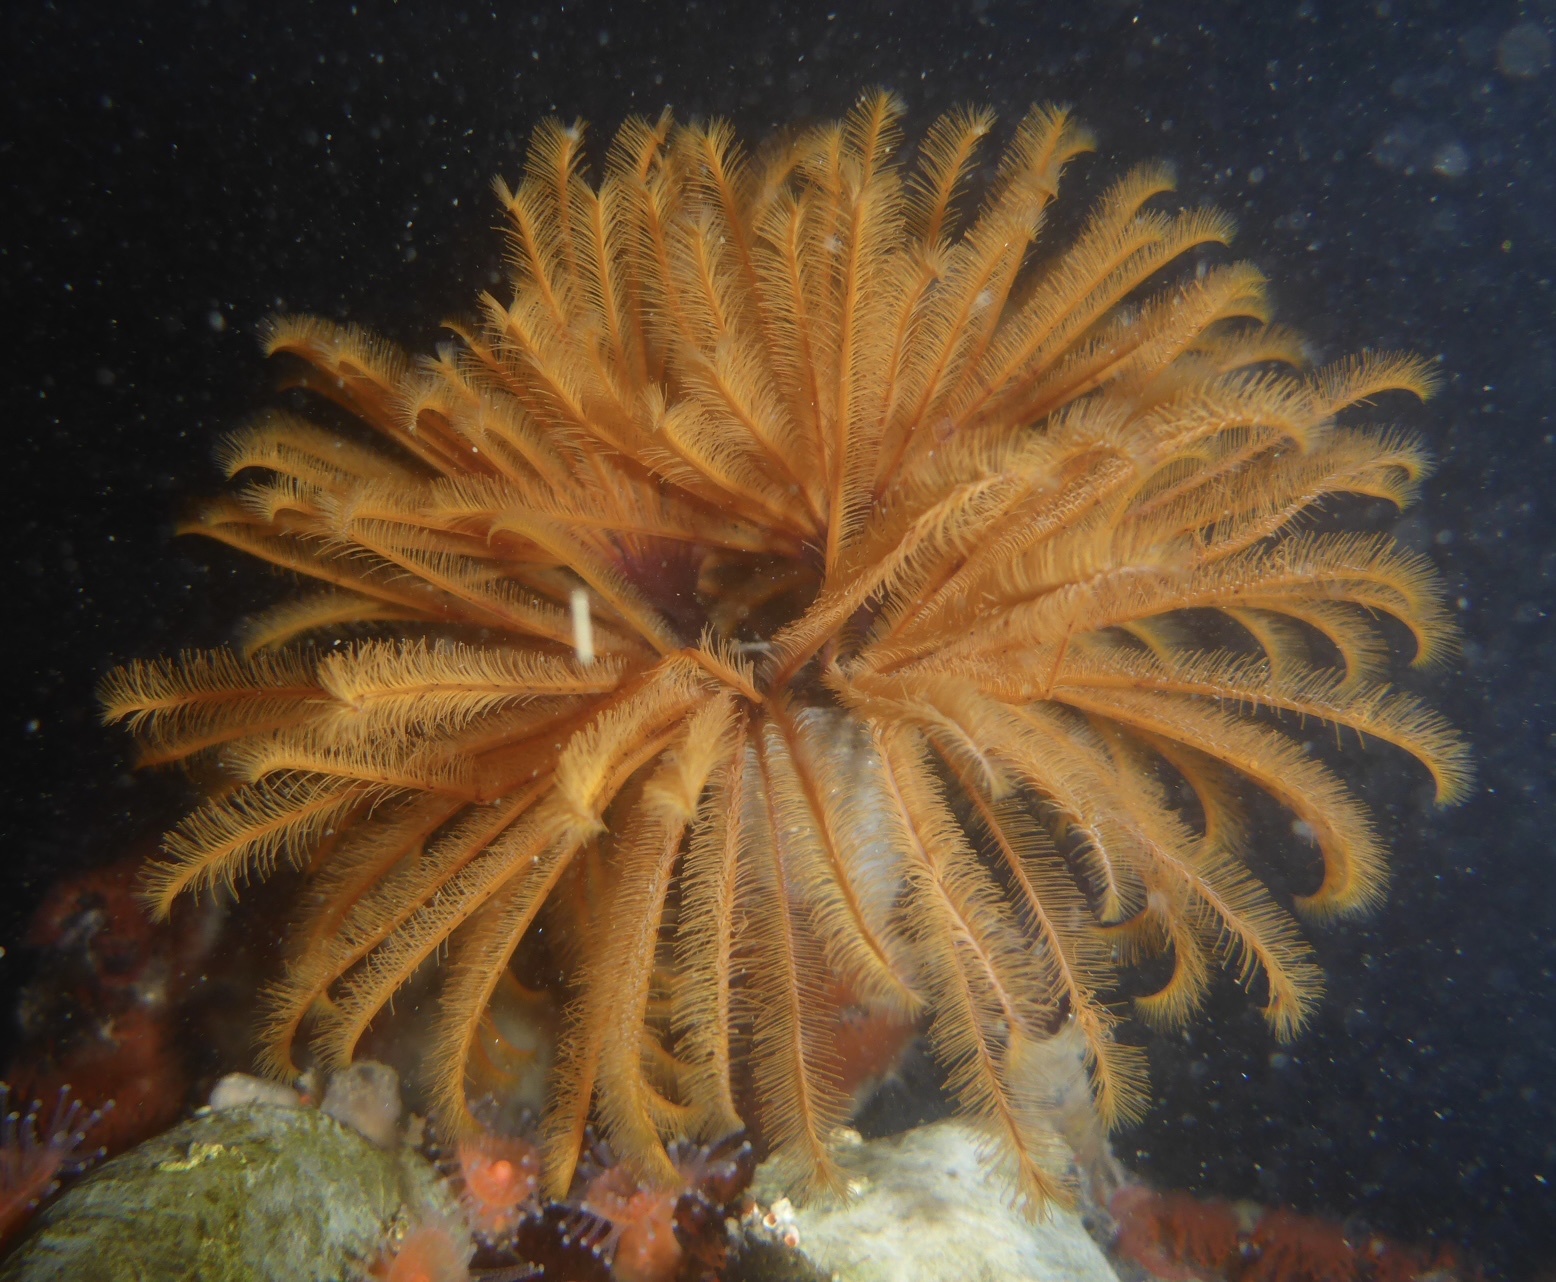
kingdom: Animalia
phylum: Annelida
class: Polychaeta
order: Sabellida
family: Sabellidae
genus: Eudistylia
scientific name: Eudistylia polymorpha
